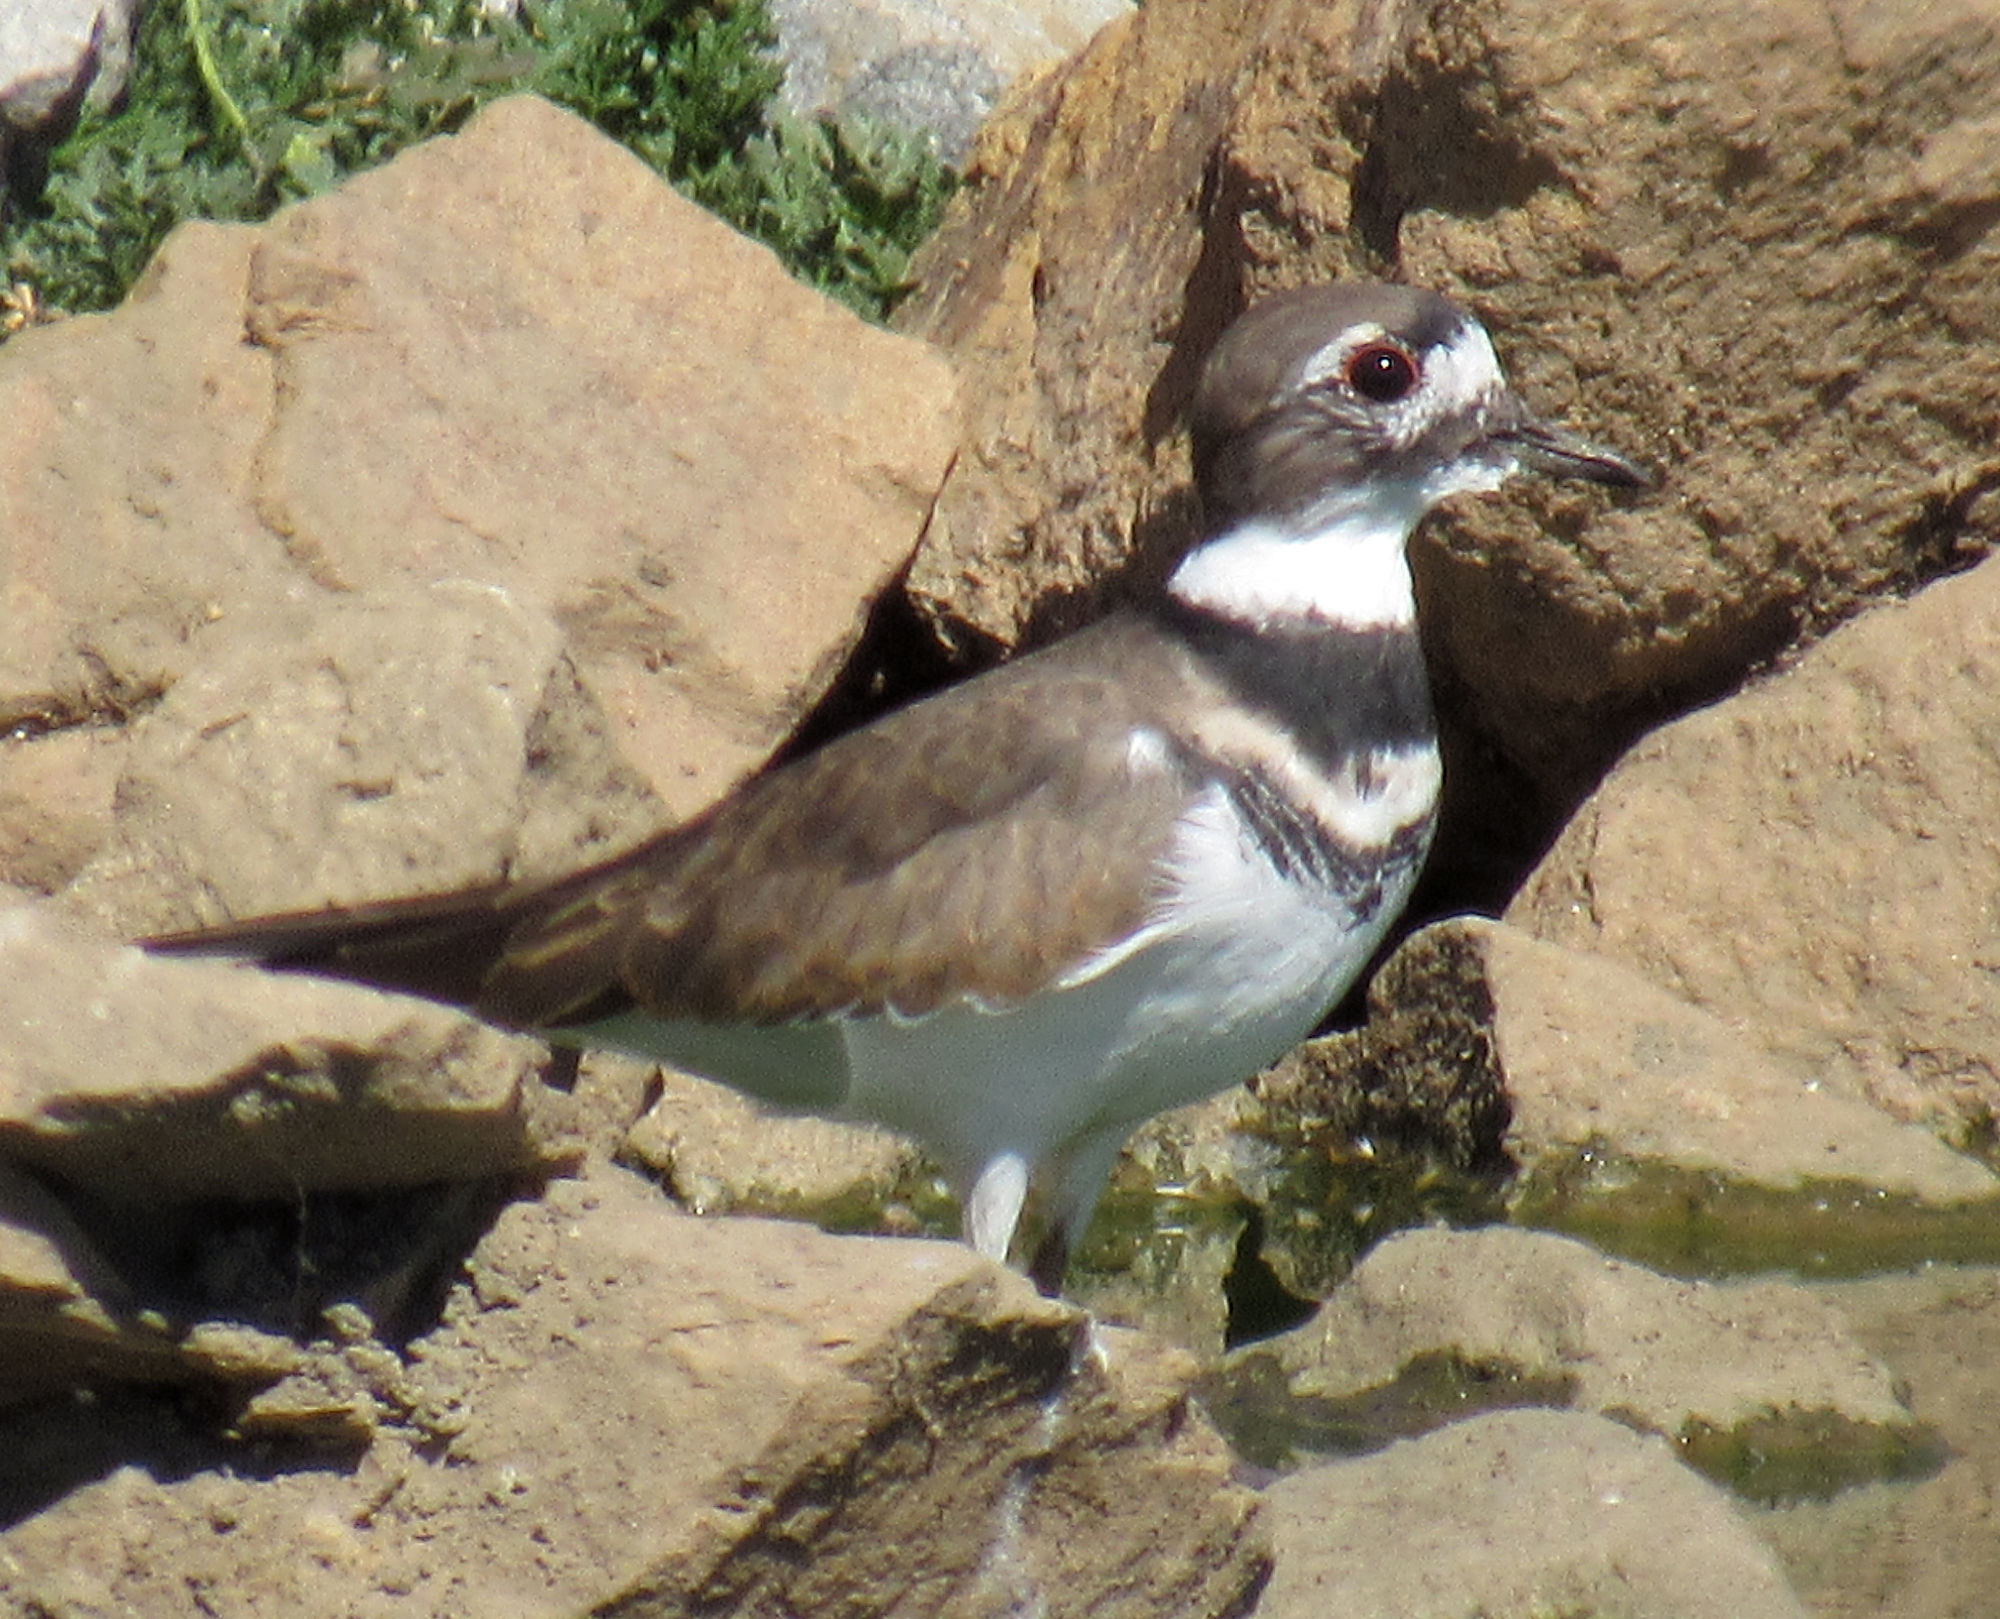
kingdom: Animalia
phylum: Chordata
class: Aves
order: Charadriiformes
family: Charadriidae
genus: Charadrius
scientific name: Charadrius vociferus
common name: Killdeer
